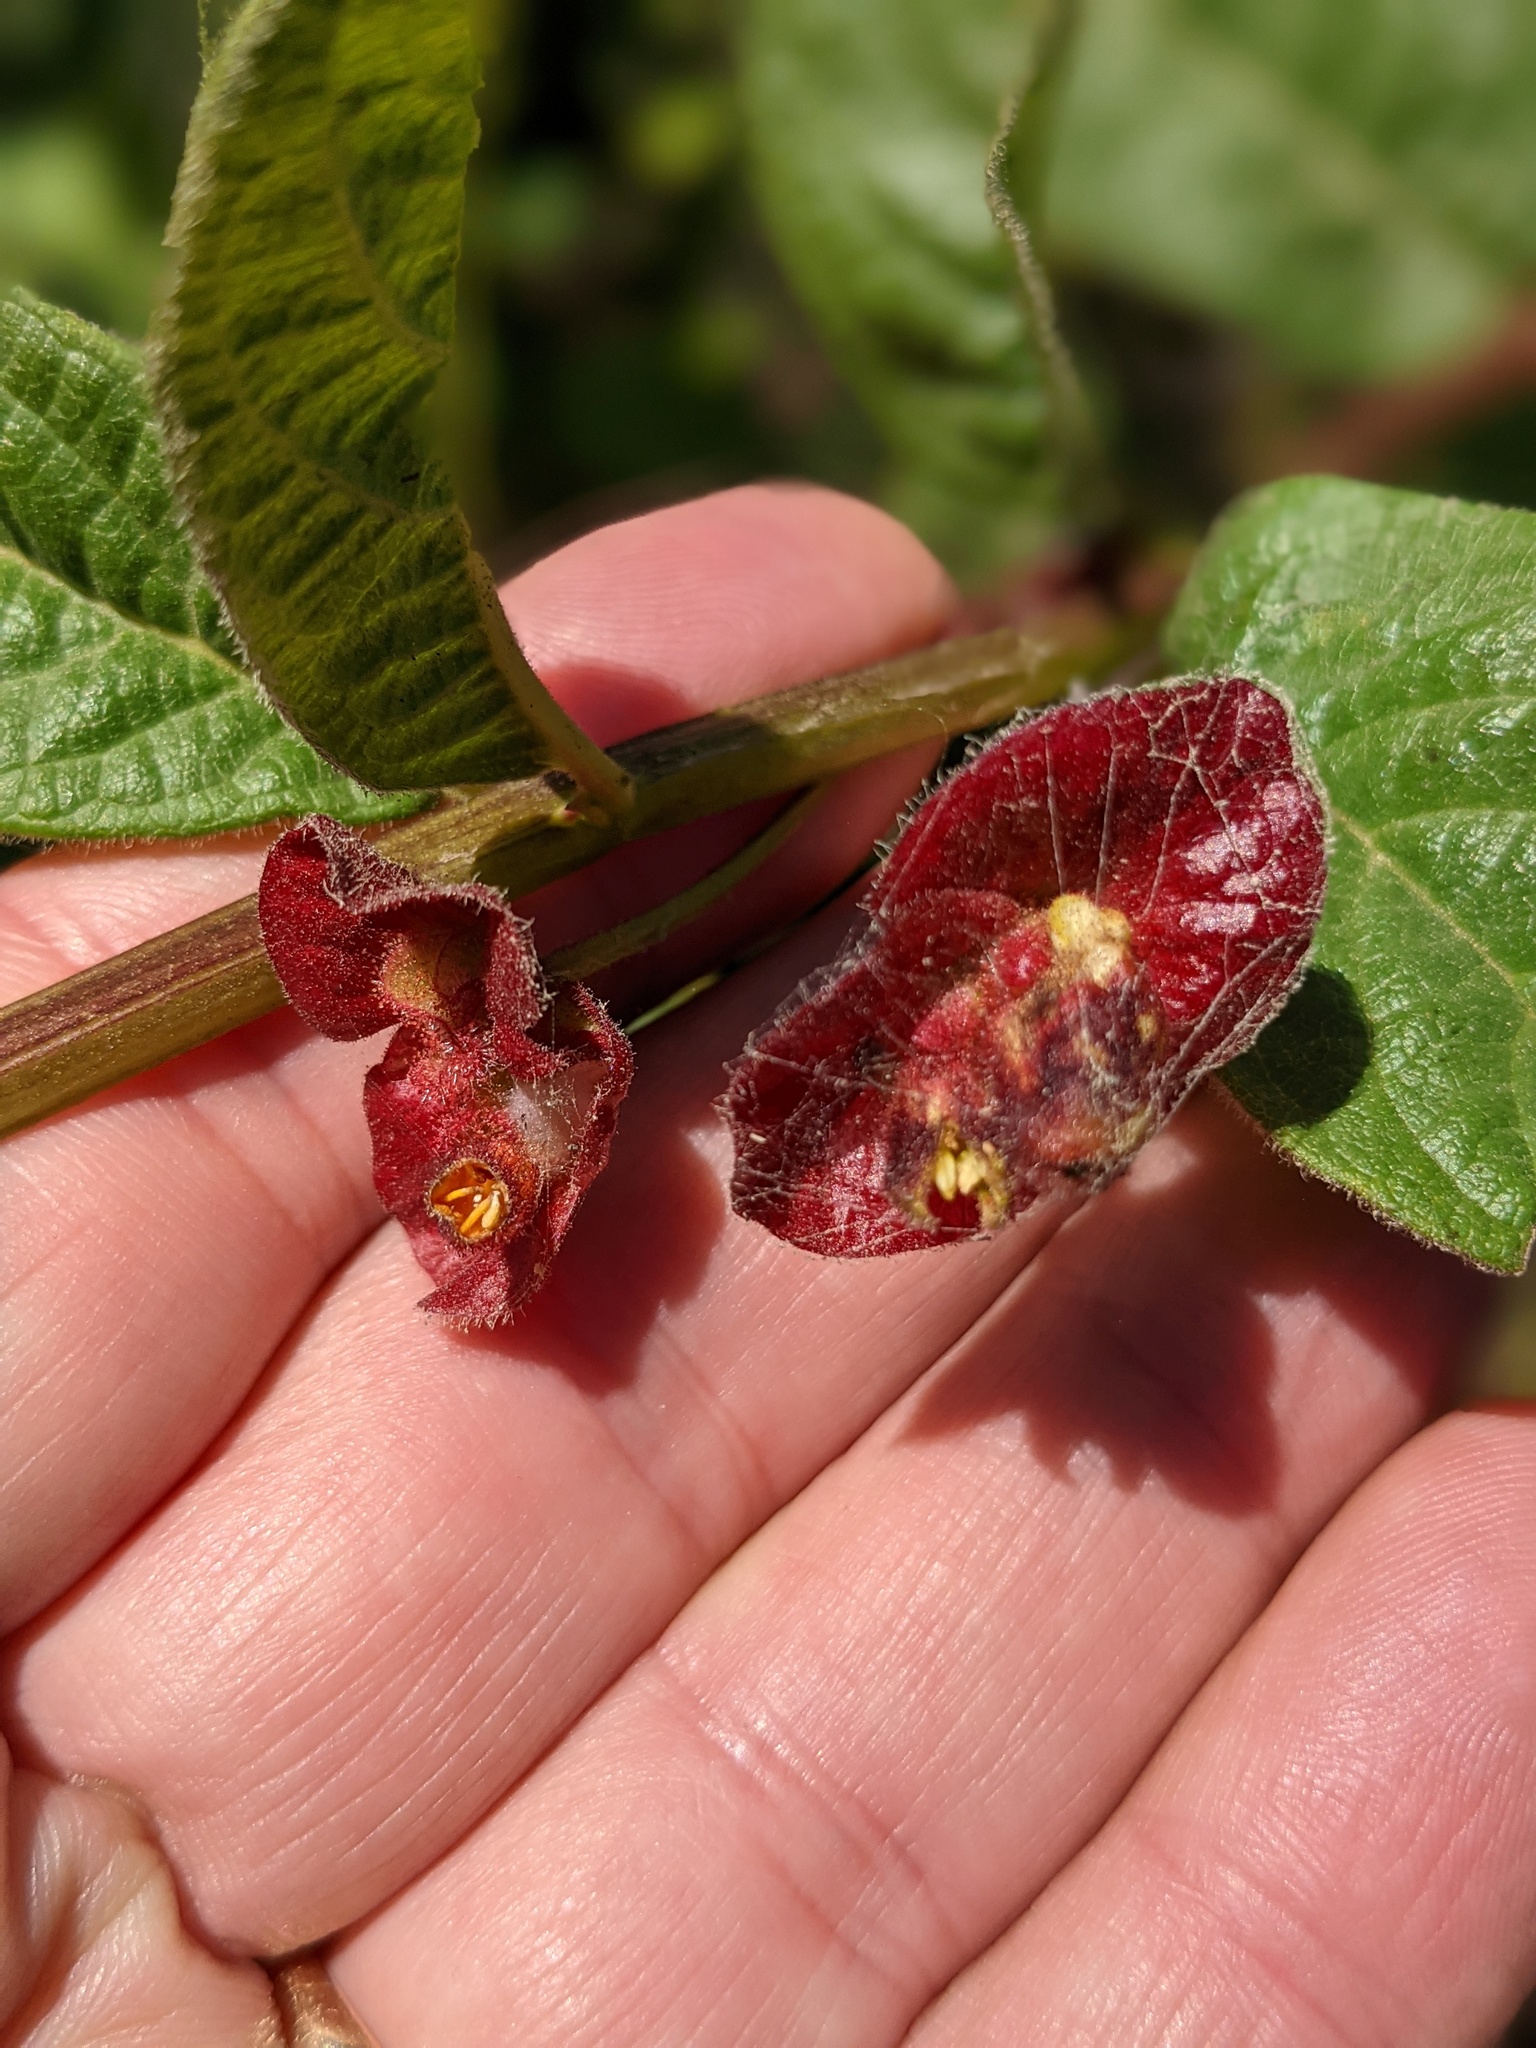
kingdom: Plantae
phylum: Tracheophyta
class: Magnoliopsida
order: Dipsacales
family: Caprifoliaceae
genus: Lonicera
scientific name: Lonicera involucrata
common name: Californian honeysuckle
